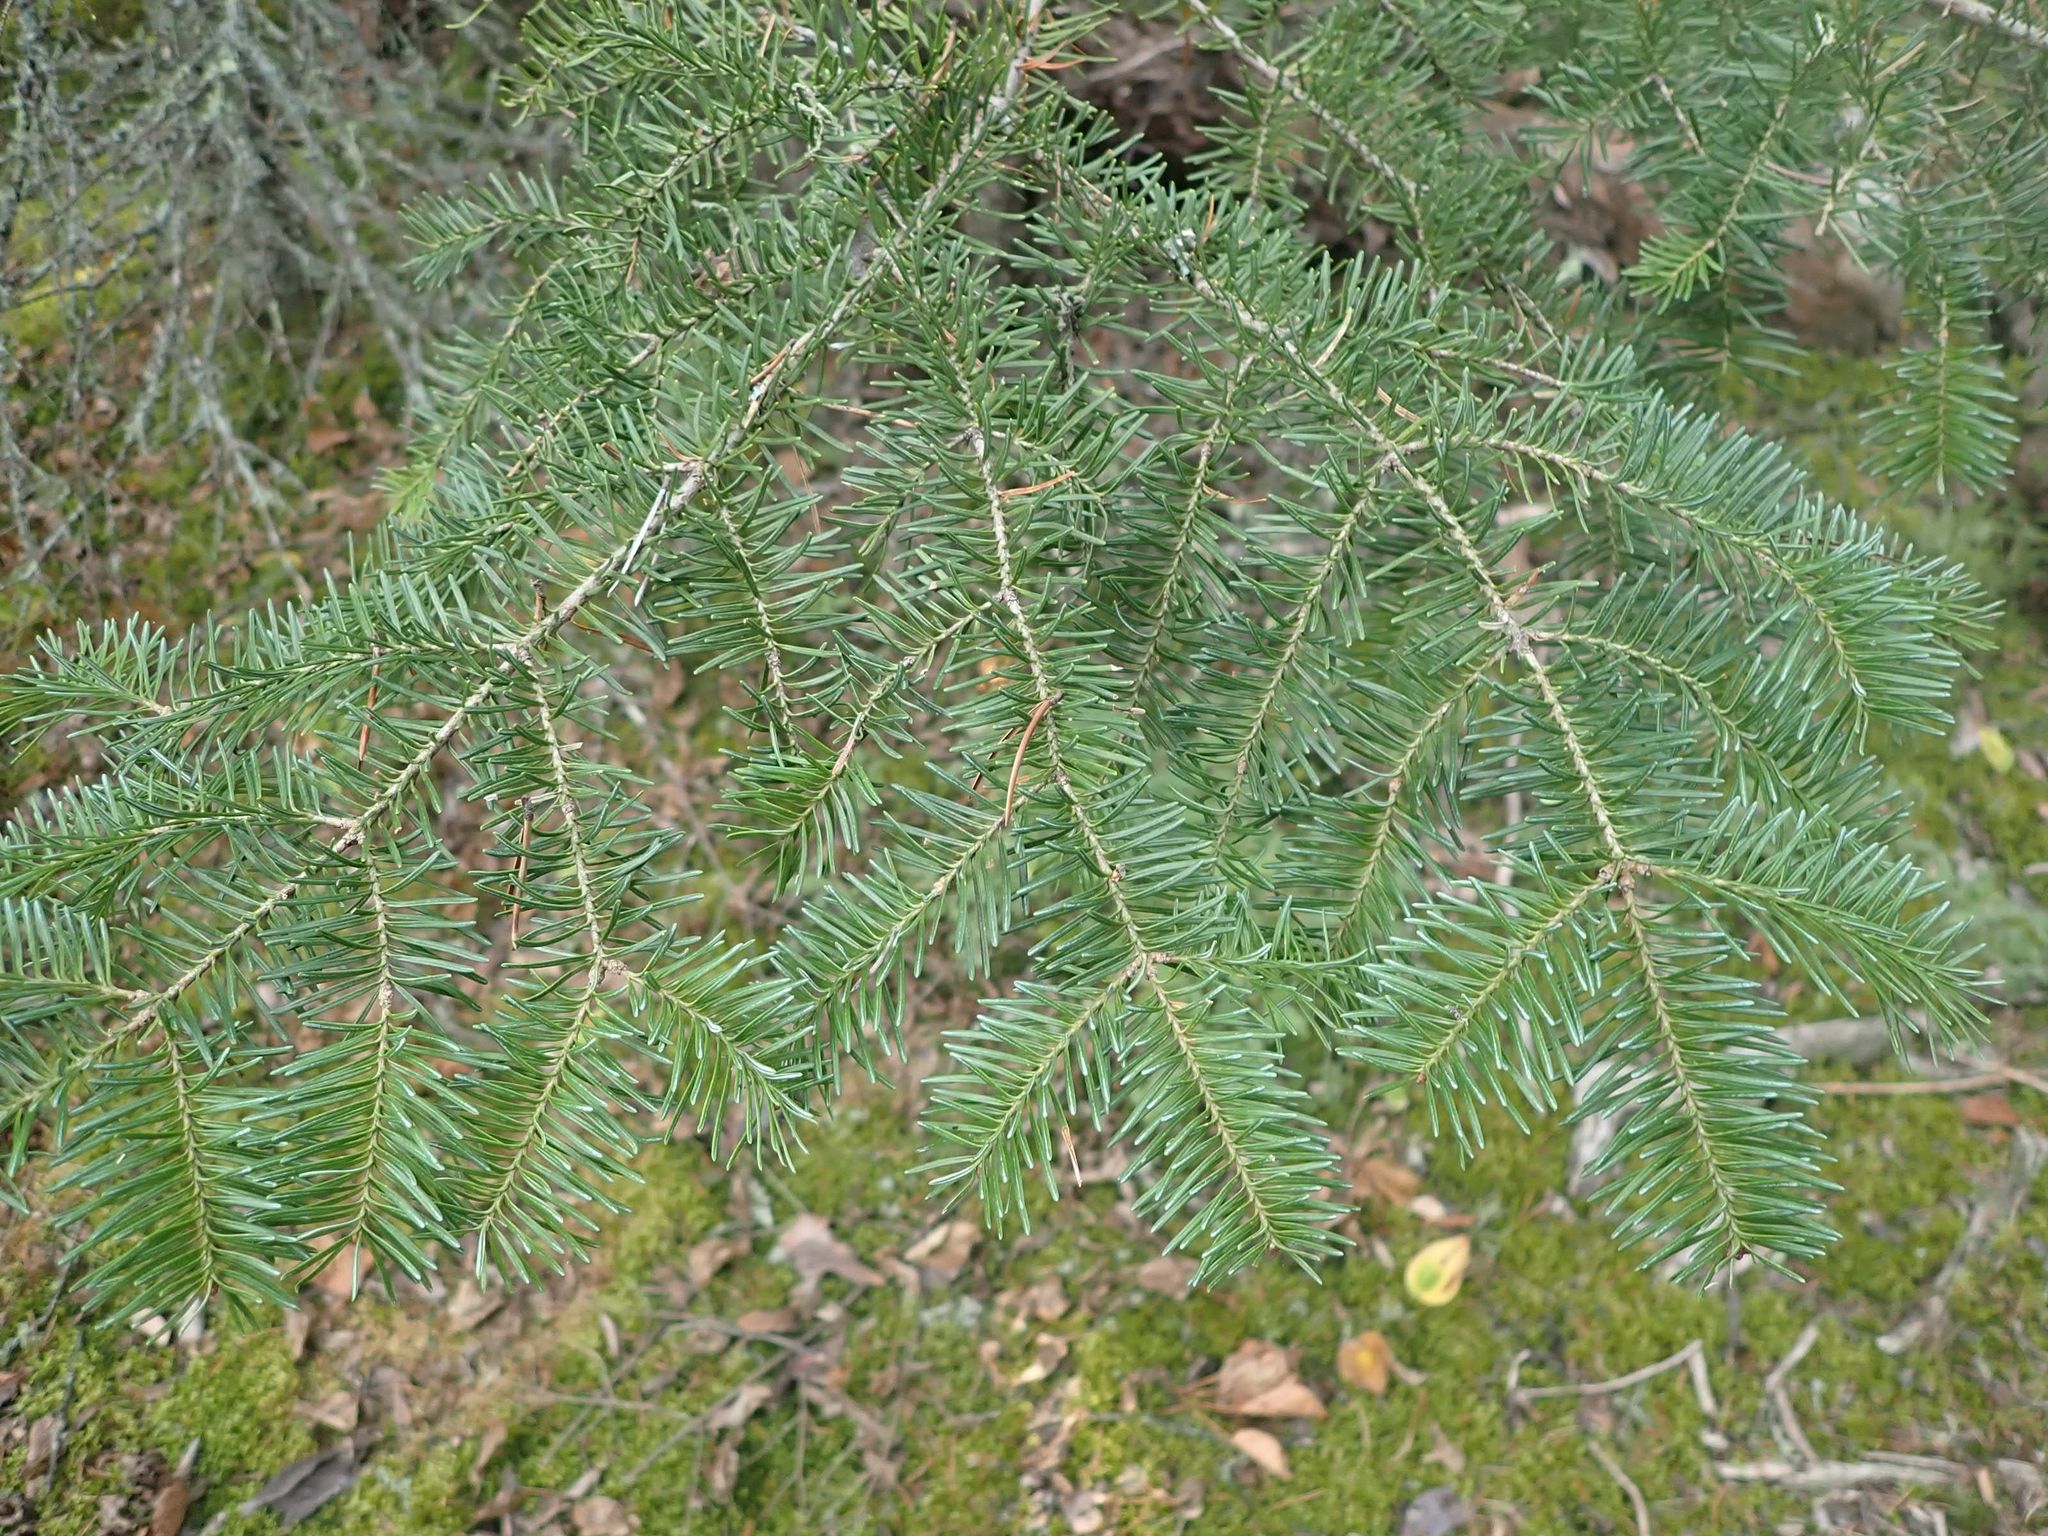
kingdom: Plantae
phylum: Tracheophyta
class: Pinopsida
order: Pinales
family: Pinaceae
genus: Abies
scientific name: Abies balsamea
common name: Balsam fir
